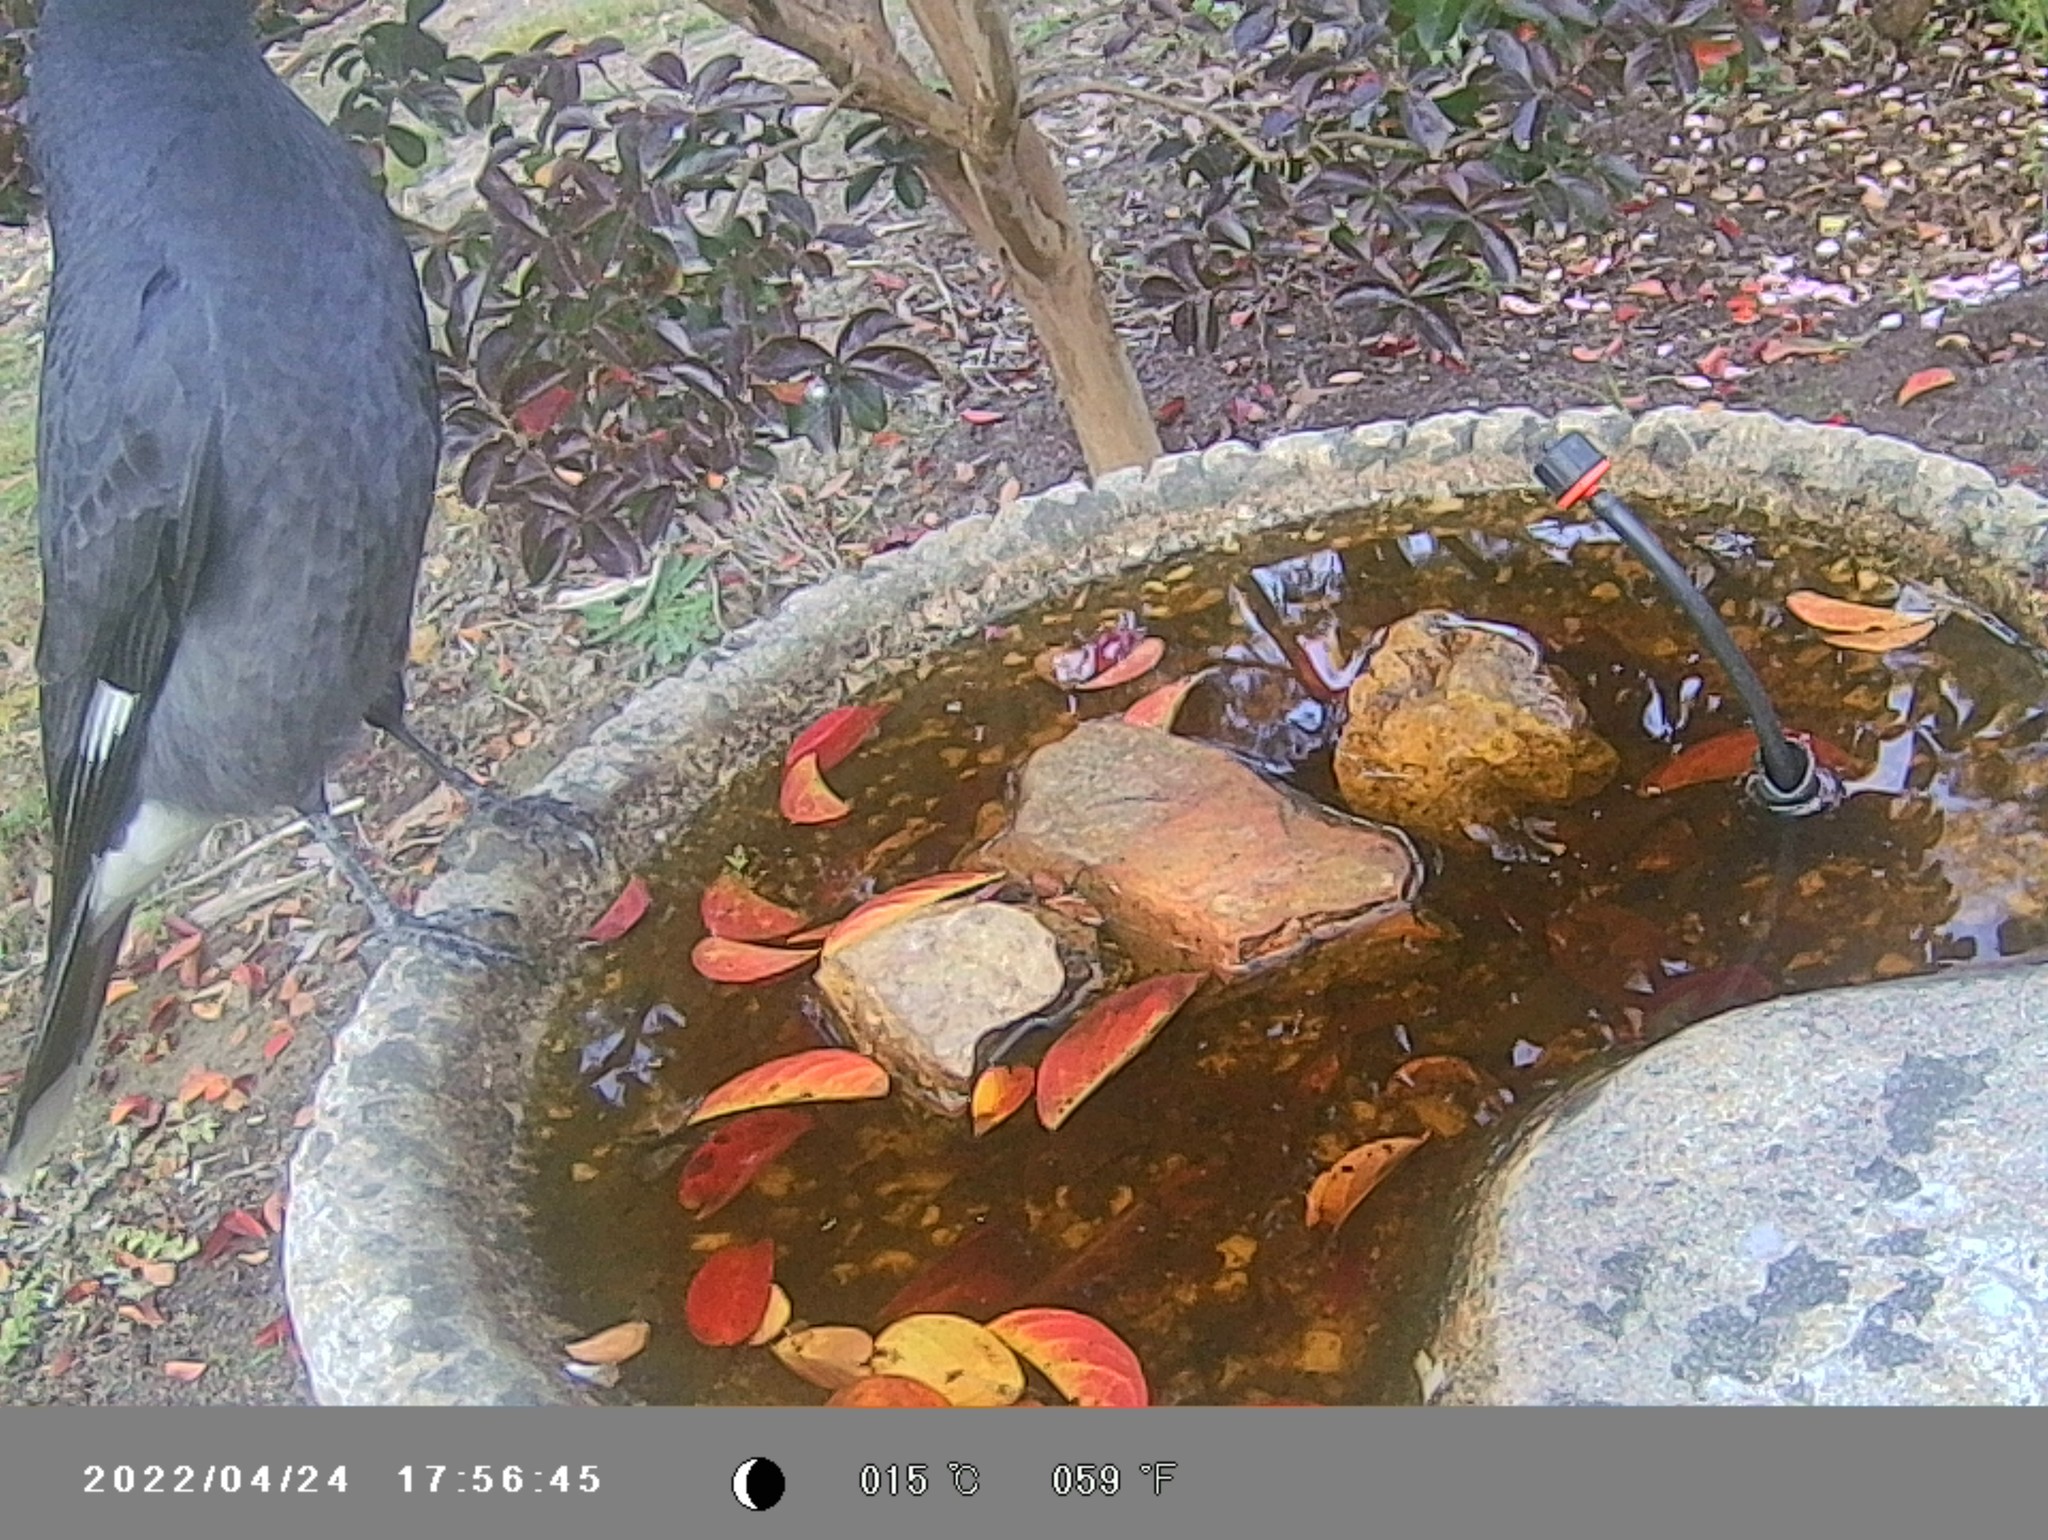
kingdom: Animalia
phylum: Chordata
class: Aves
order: Passeriformes
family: Cracticidae
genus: Strepera
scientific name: Strepera graculina
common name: Pied currawong
